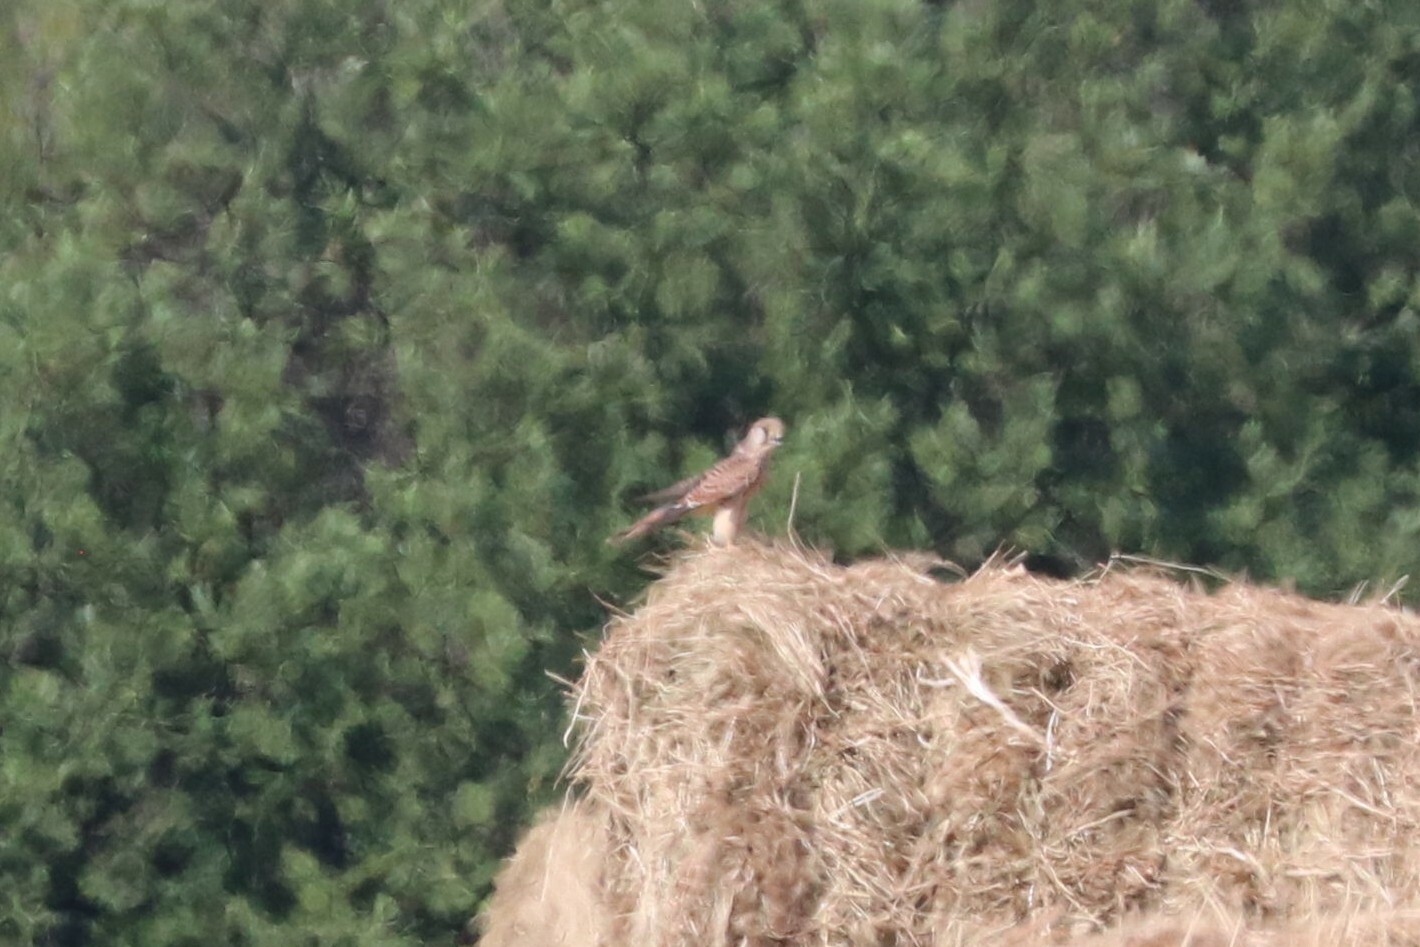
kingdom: Animalia
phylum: Chordata
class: Aves
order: Falconiformes
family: Falconidae
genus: Falco
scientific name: Falco tinnunculus
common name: Common kestrel
